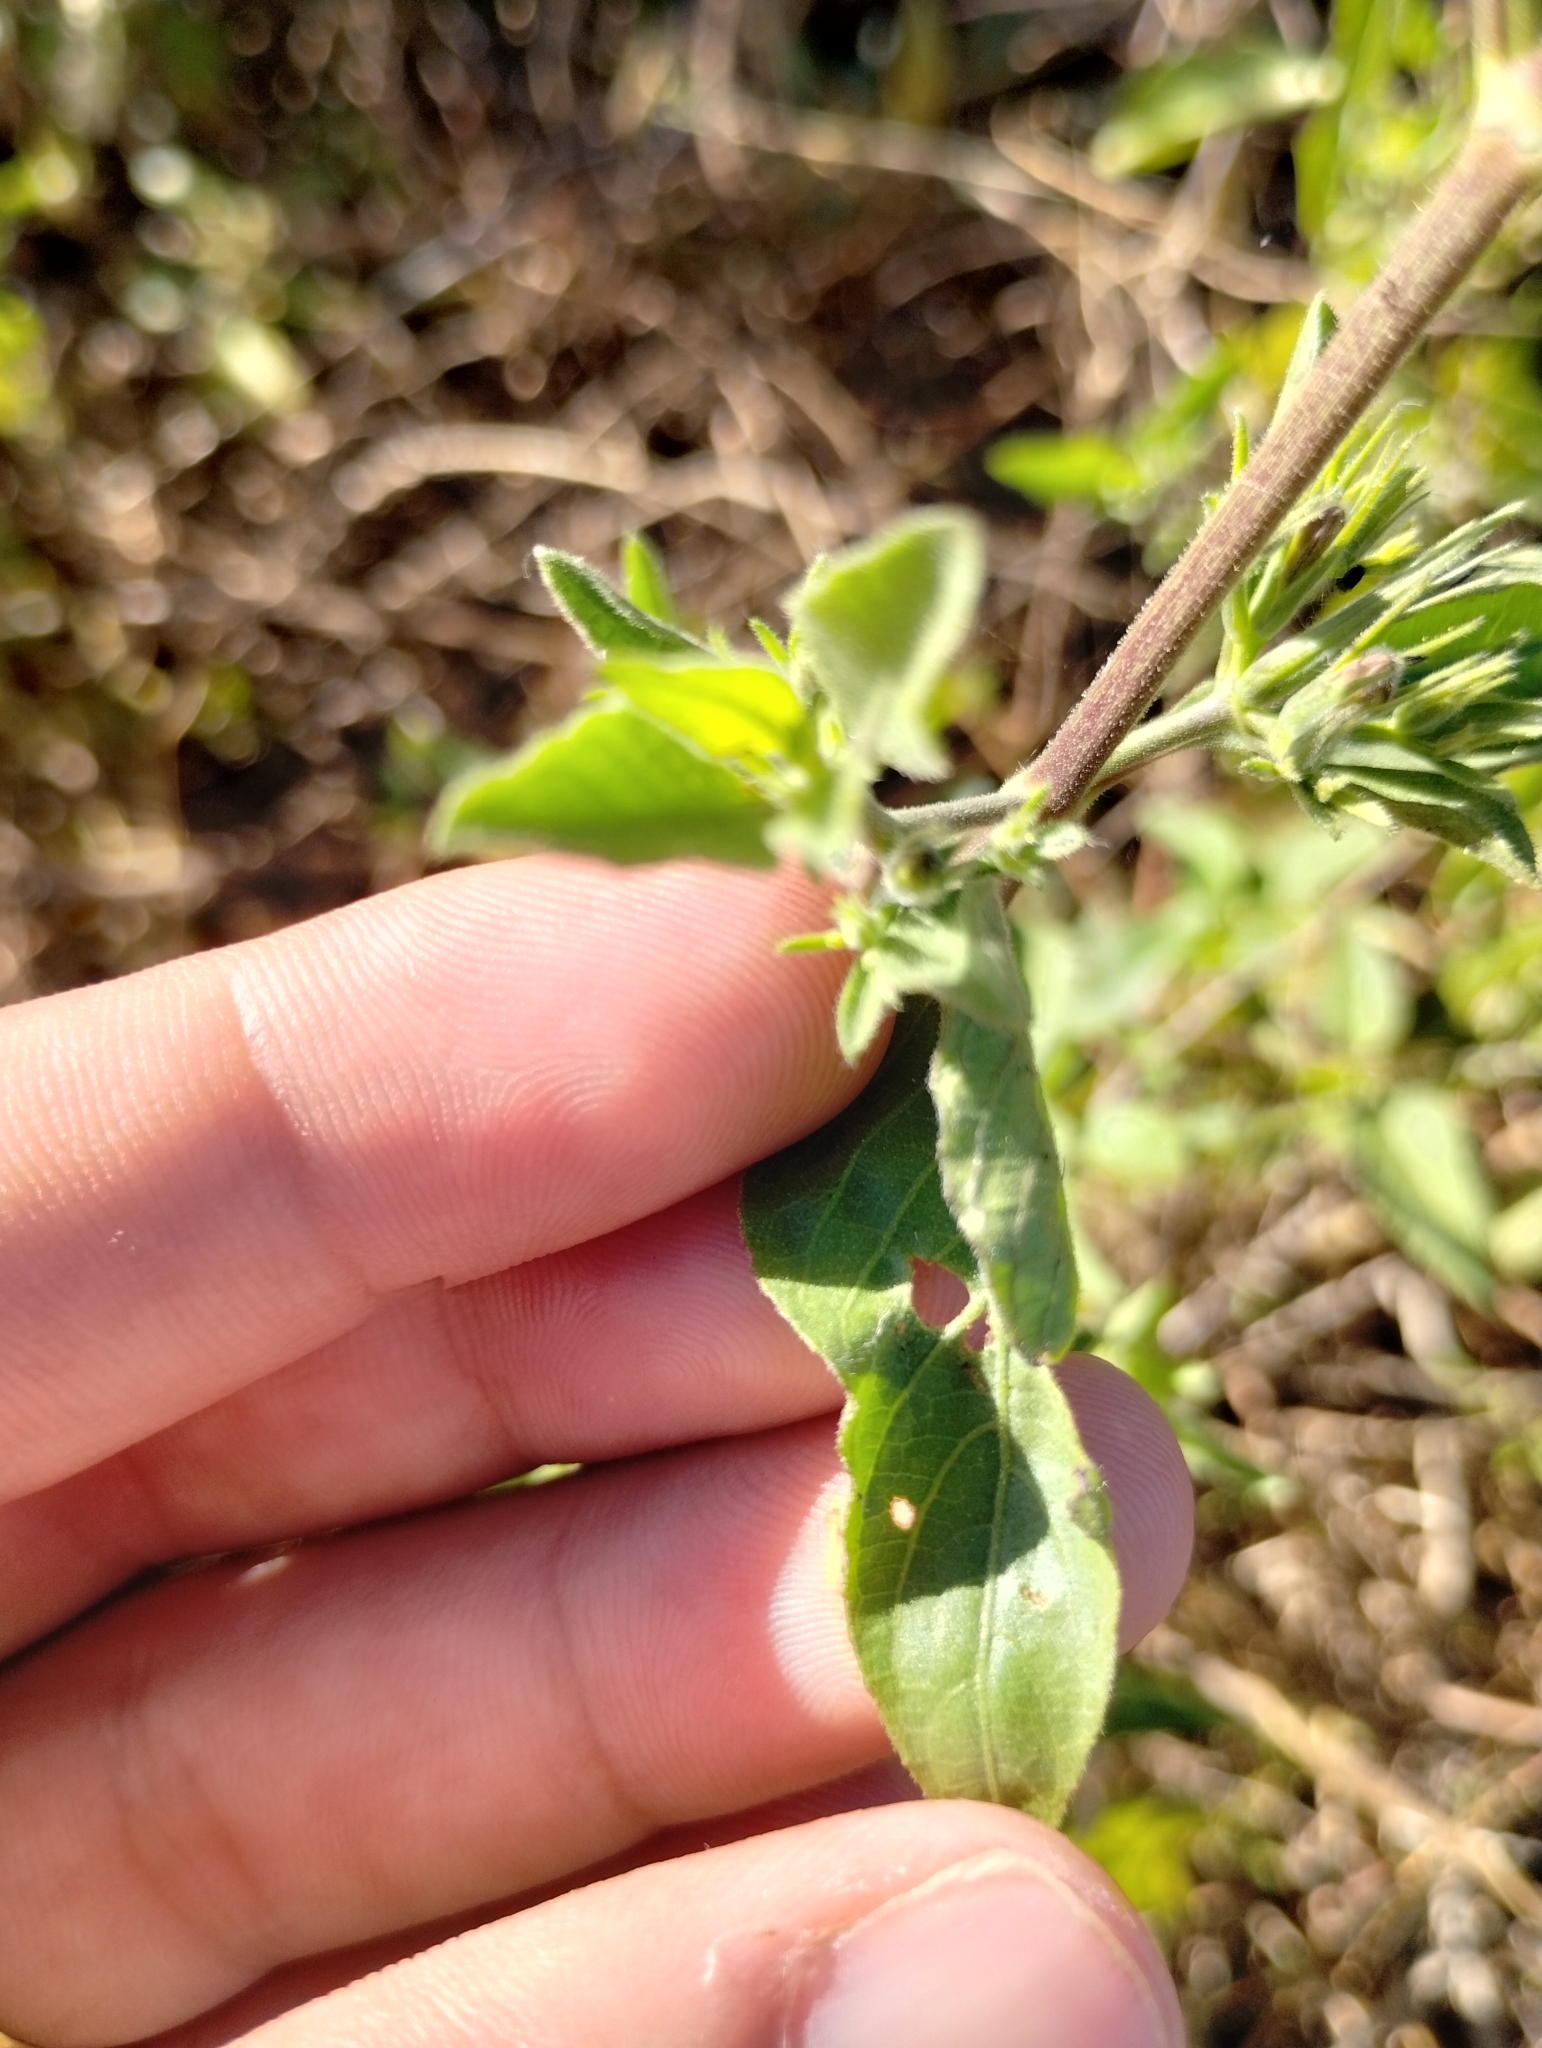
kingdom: Plantae
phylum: Tracheophyta
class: Magnoliopsida
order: Lamiales
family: Acanthaceae
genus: Ruellia
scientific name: Ruellia paniculata
